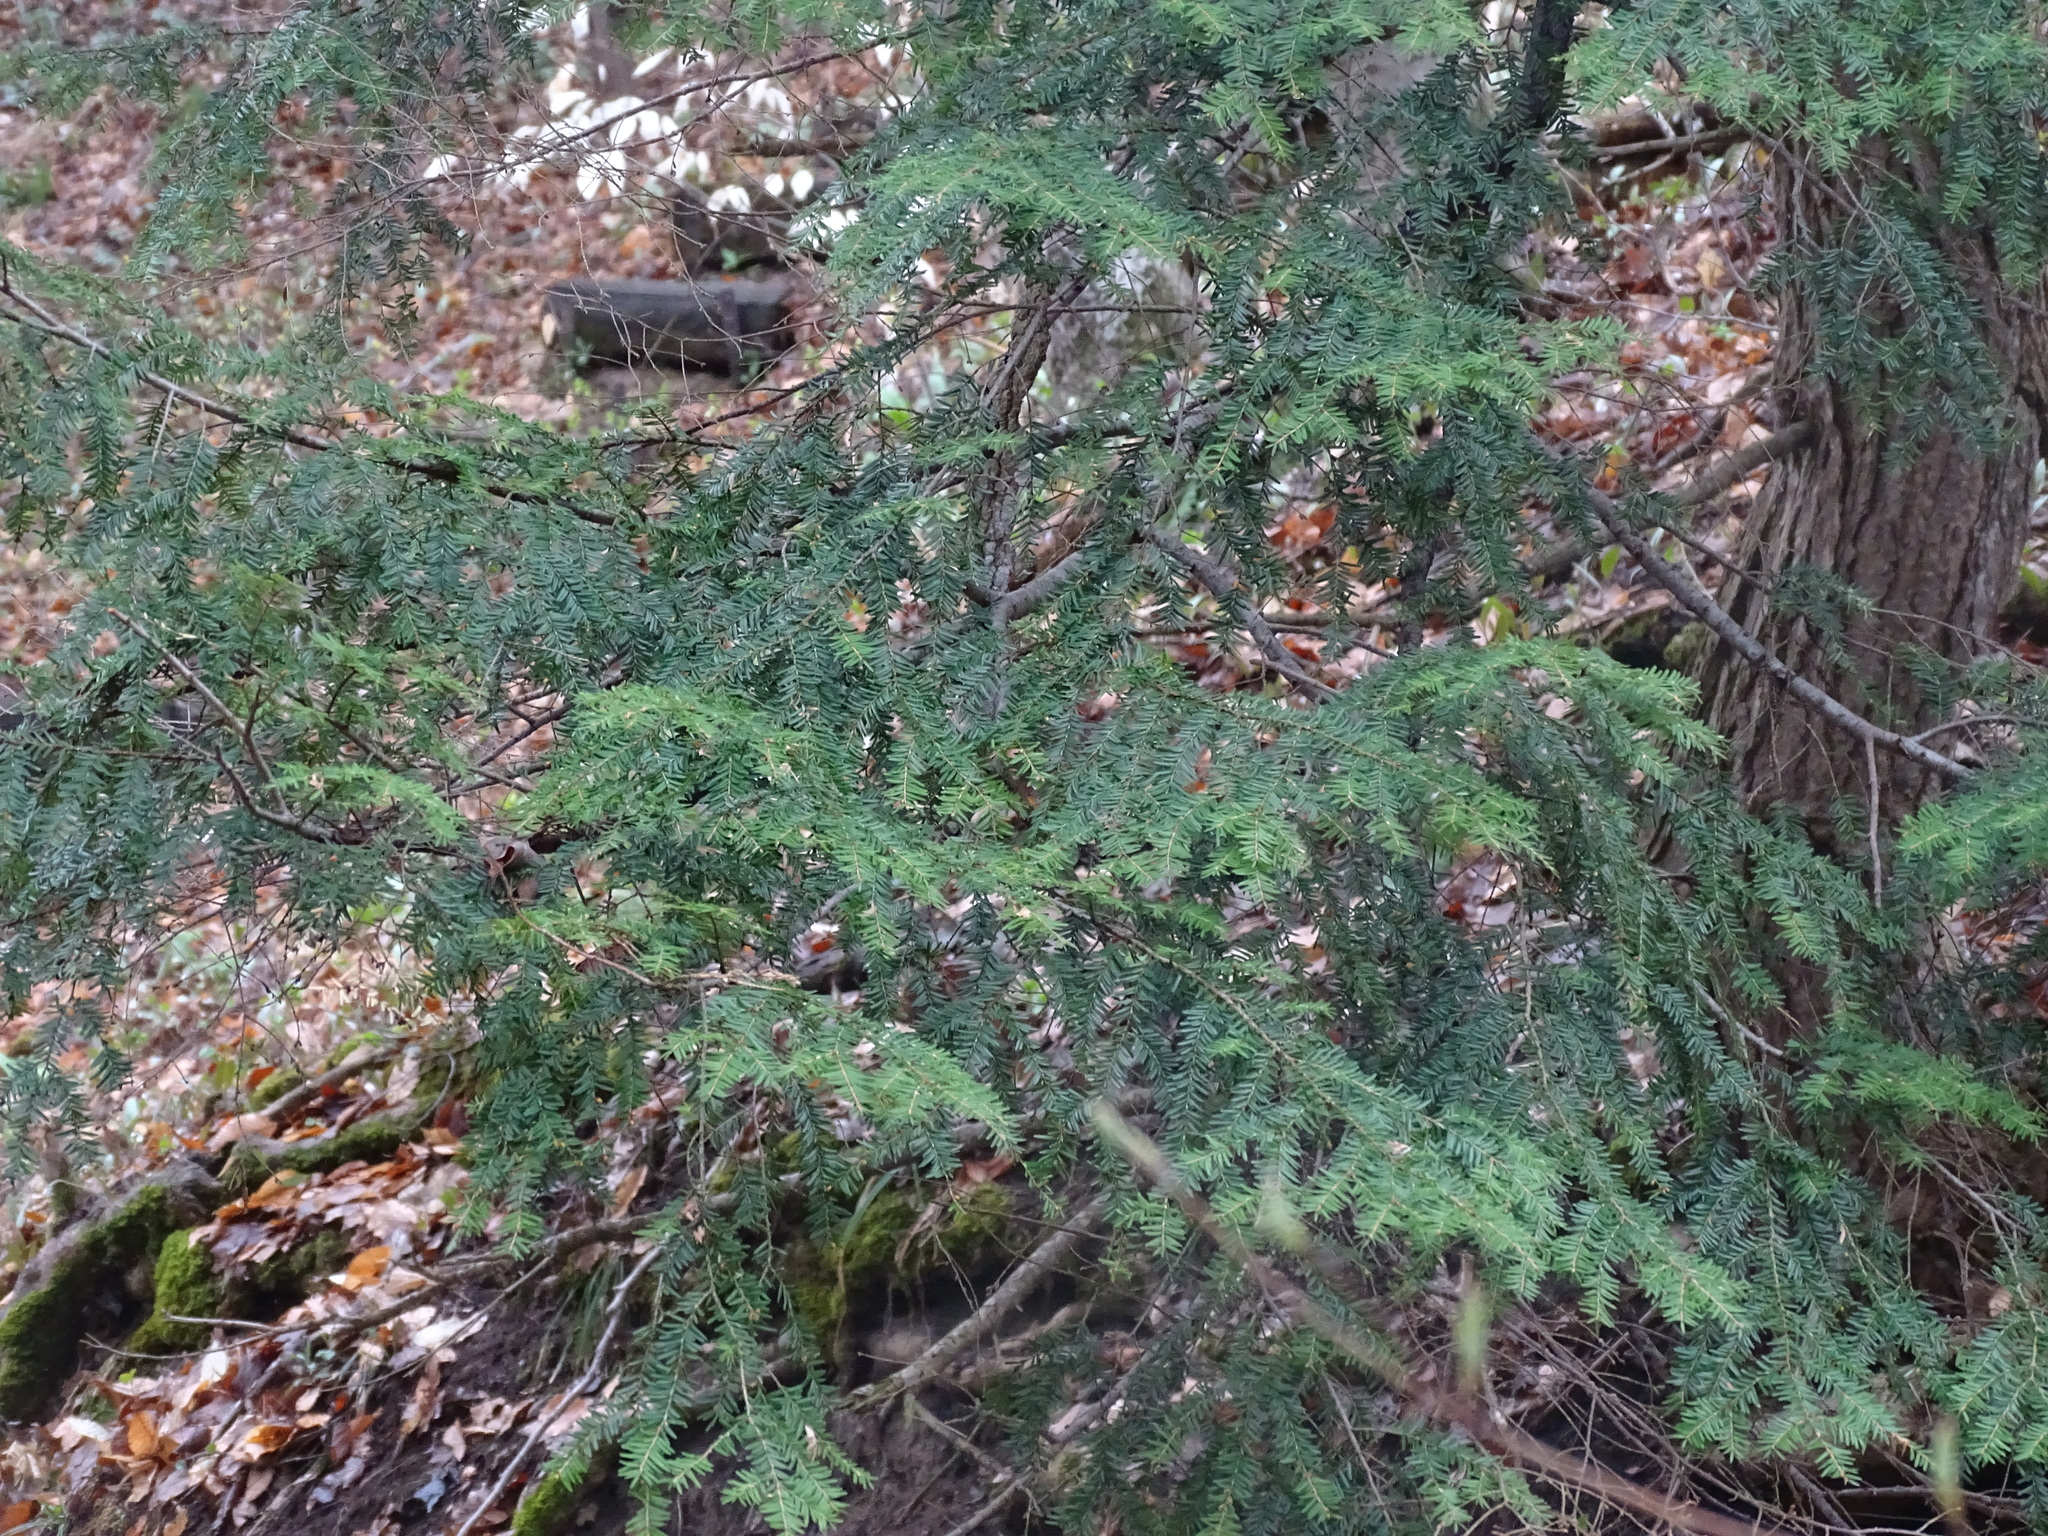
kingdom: Plantae
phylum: Tracheophyta
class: Pinopsida
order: Pinales
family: Pinaceae
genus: Tsuga
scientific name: Tsuga canadensis
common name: Eastern hemlock
